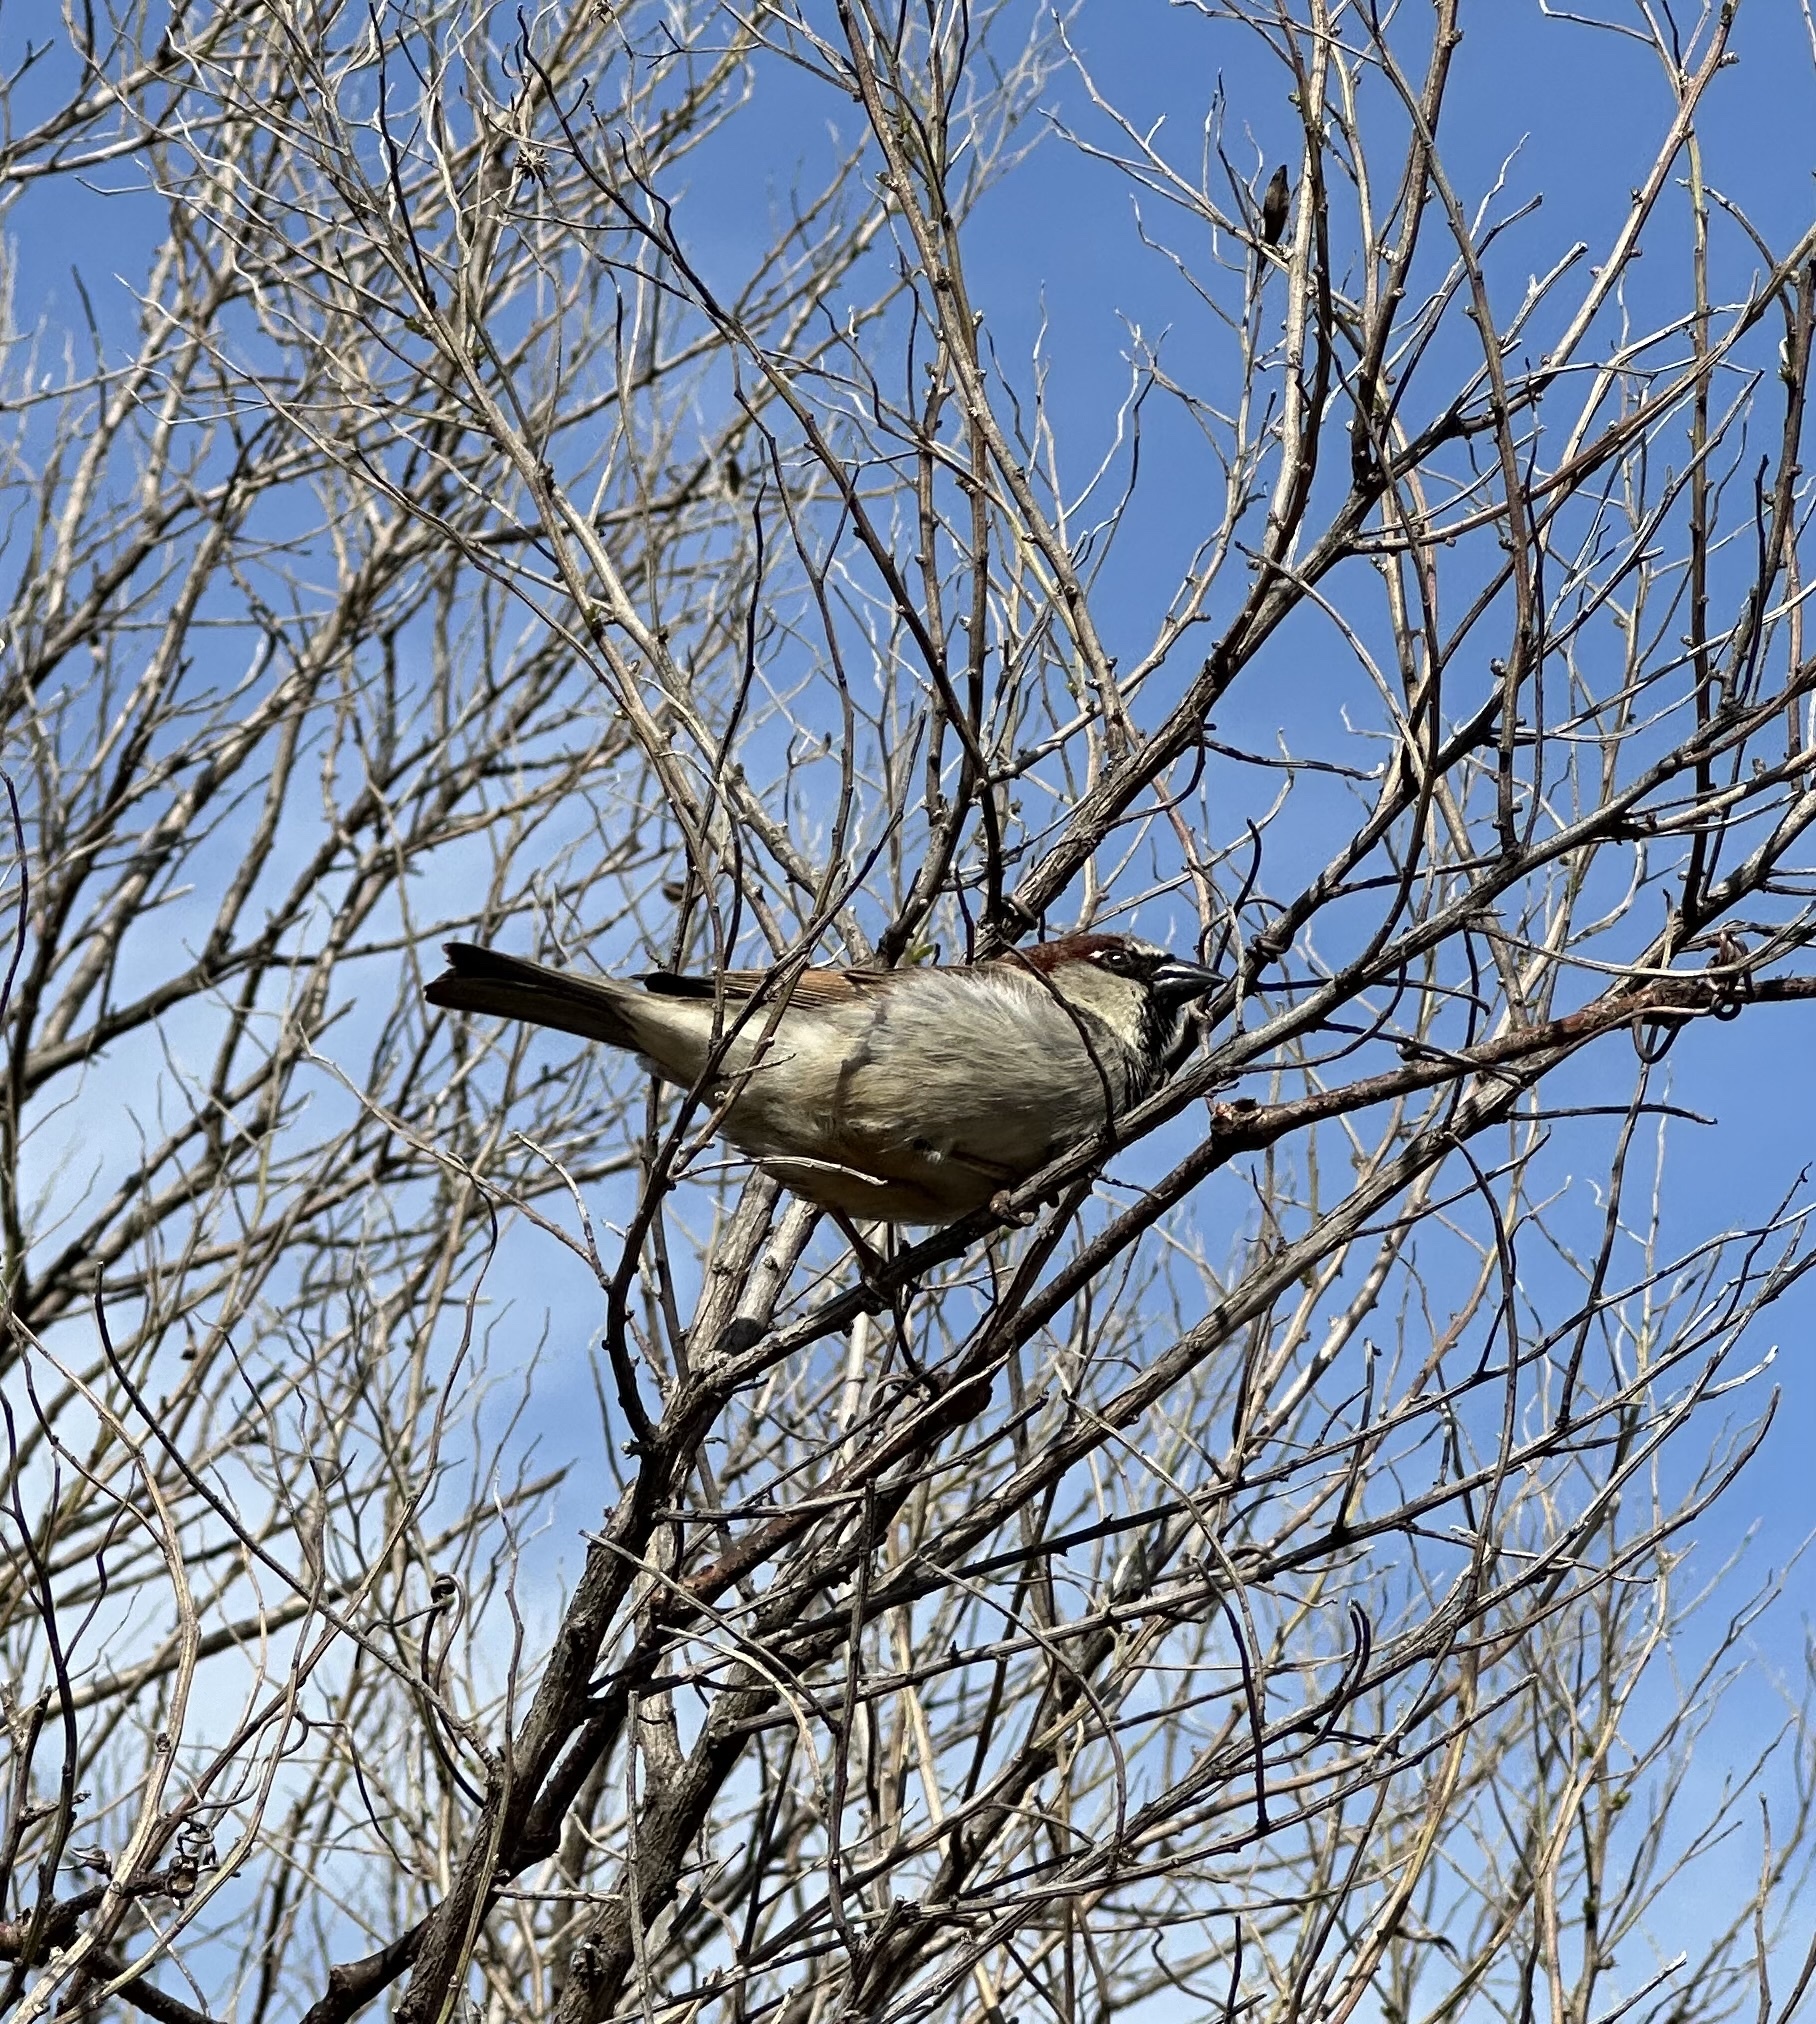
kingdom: Animalia
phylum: Chordata
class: Aves
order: Passeriformes
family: Passeridae
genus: Passer
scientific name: Passer domesticus
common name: House sparrow
